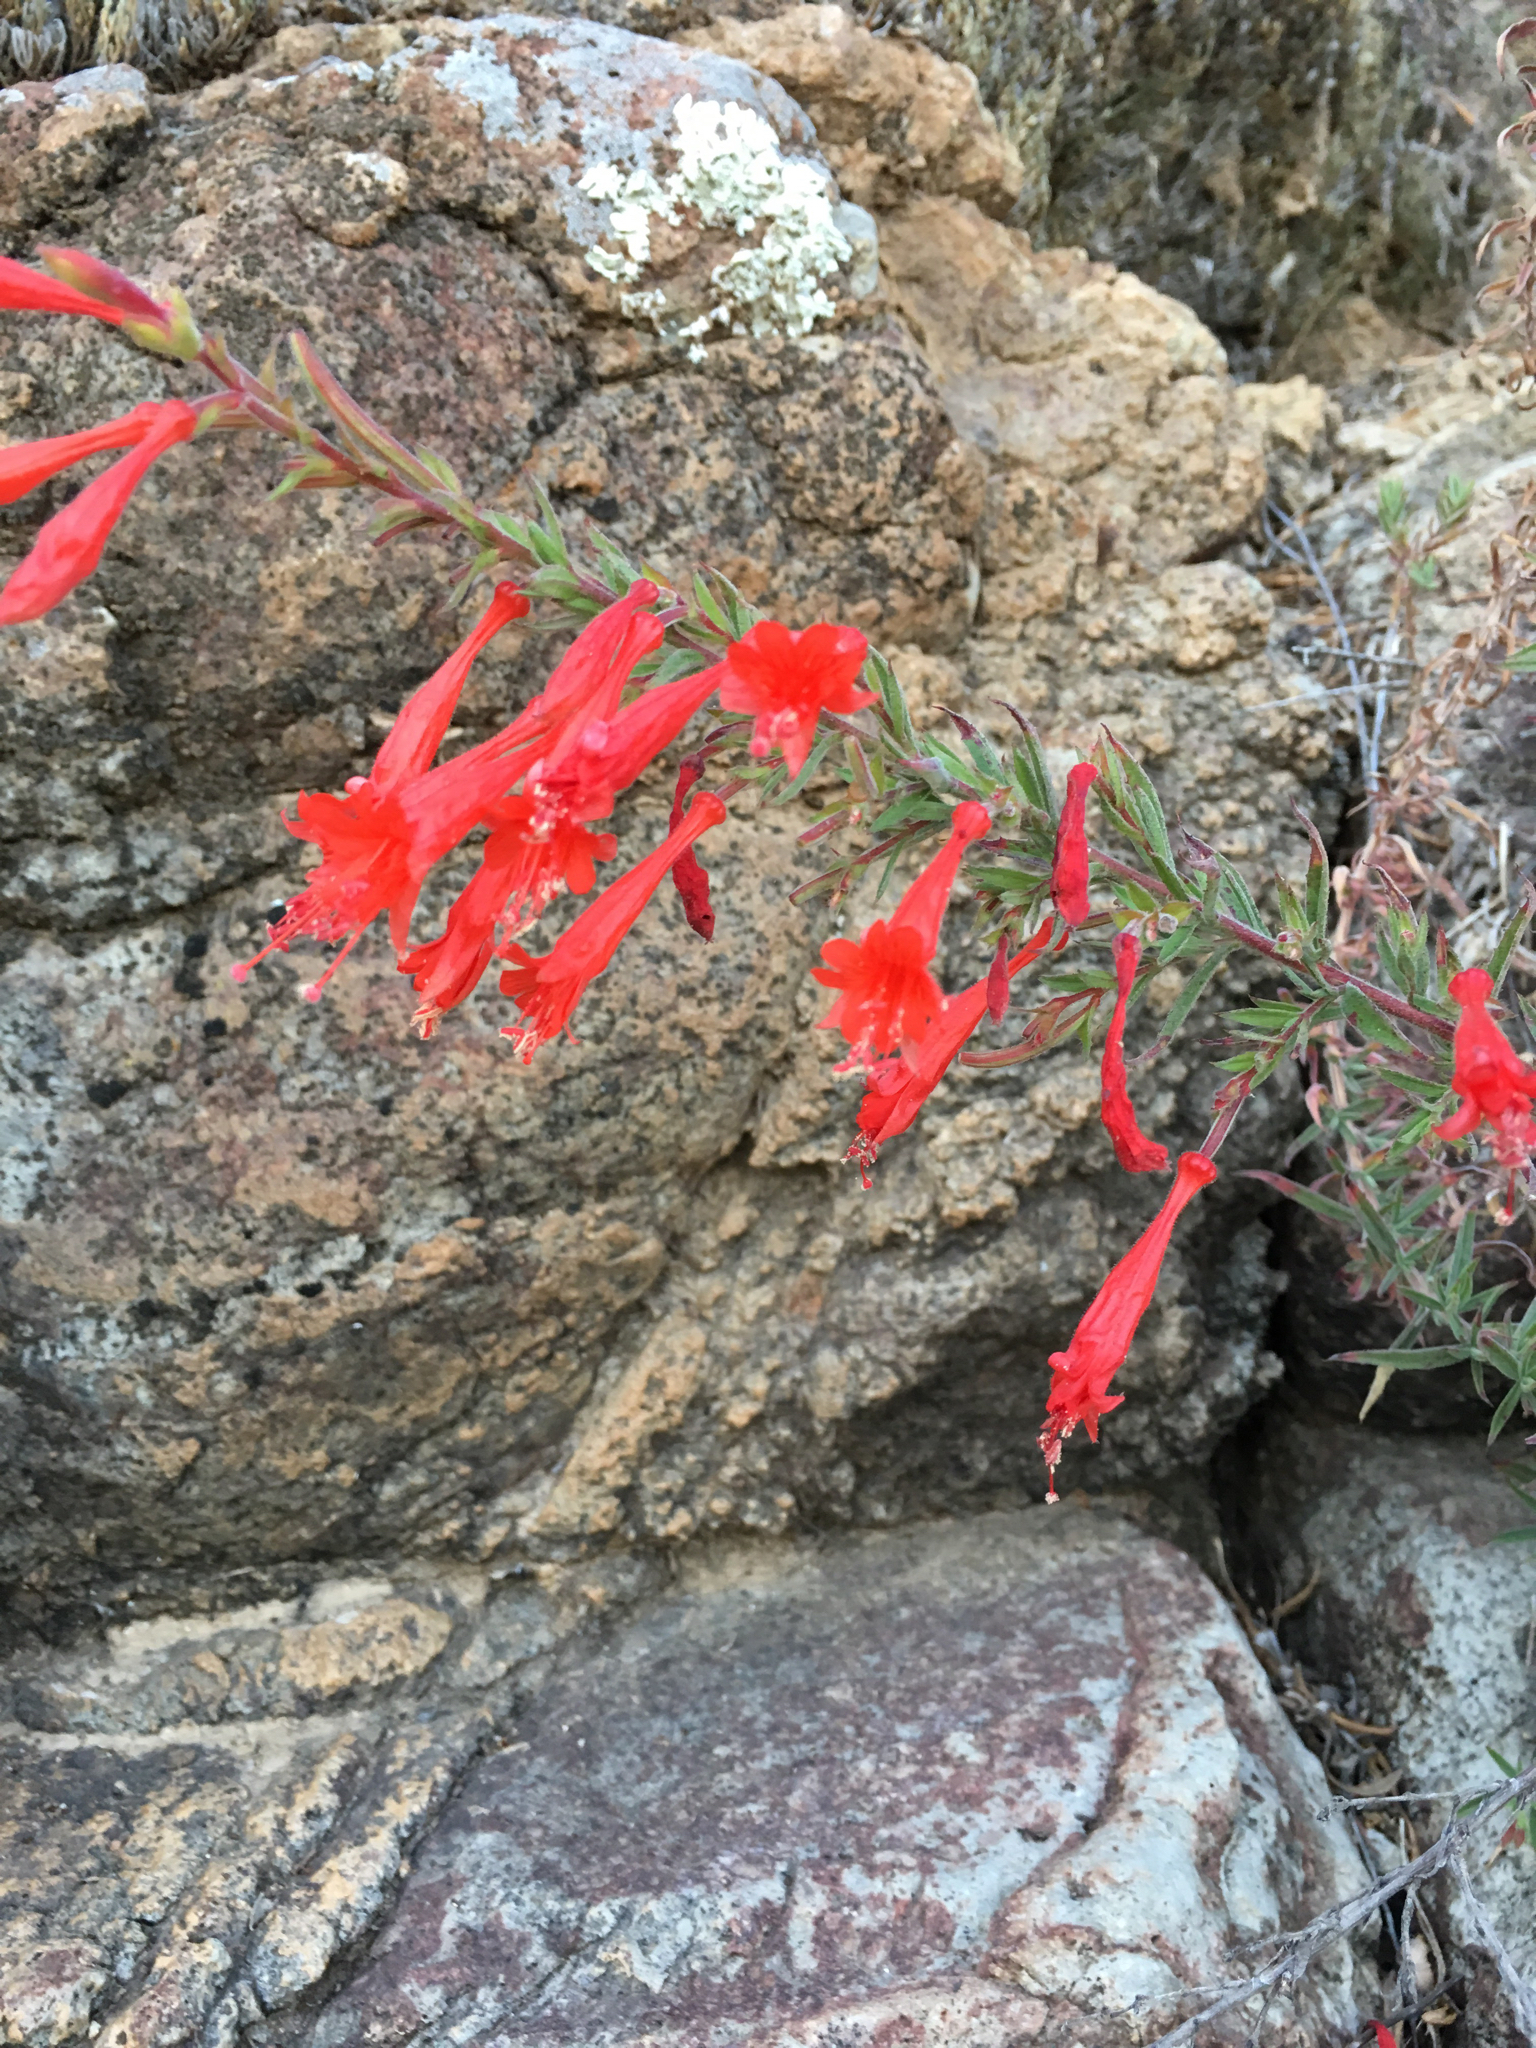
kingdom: Plantae
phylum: Tracheophyta
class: Magnoliopsida
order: Myrtales
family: Onagraceae
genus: Epilobium
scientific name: Epilobium canum
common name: California-fuchsia
